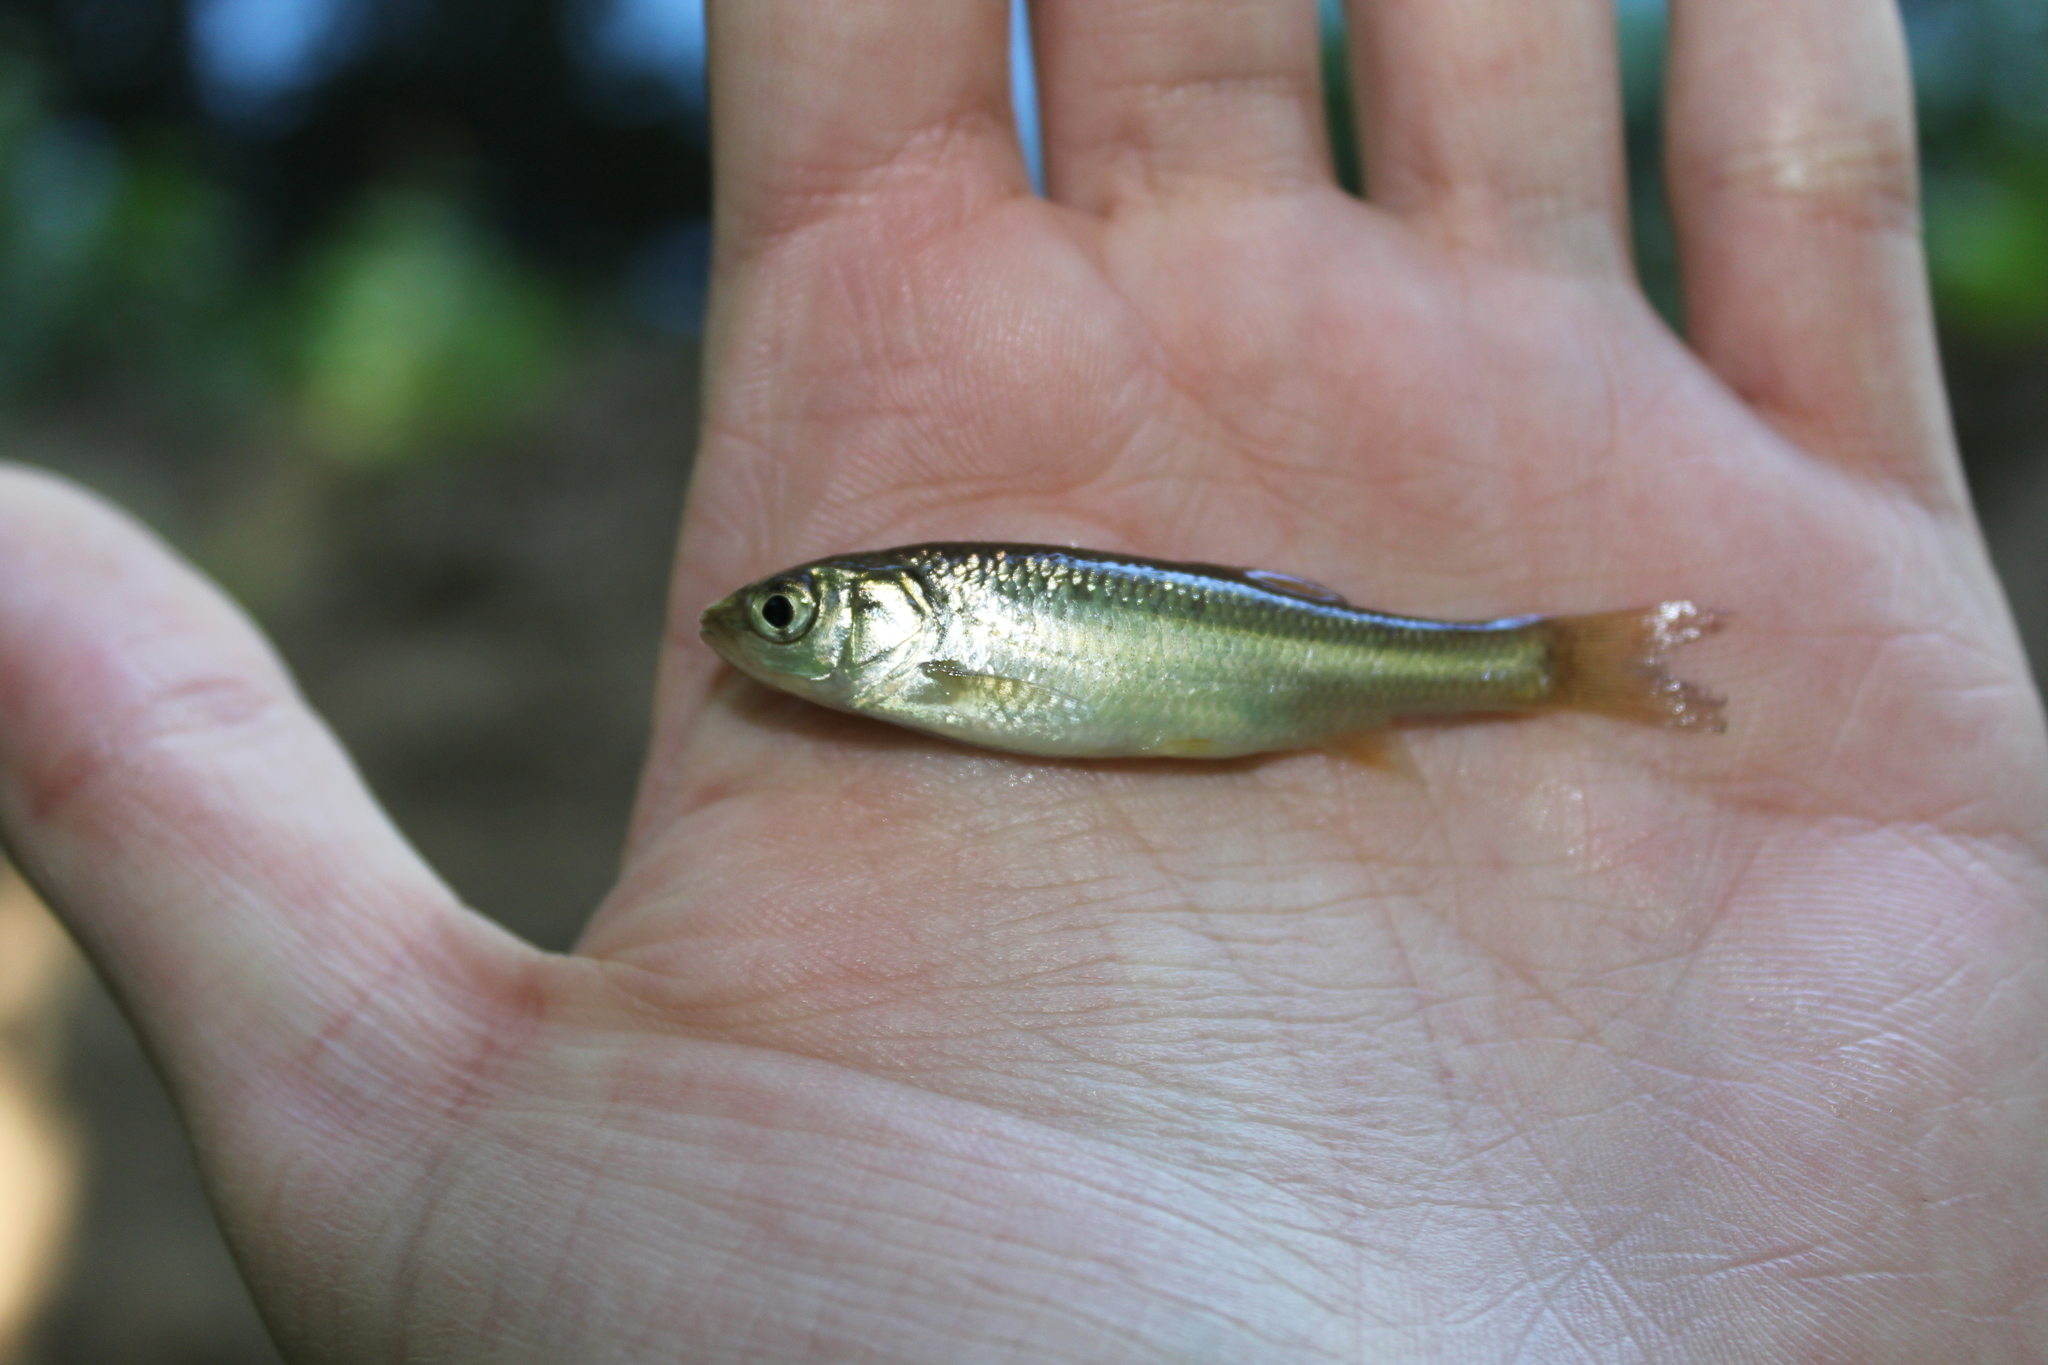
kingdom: Animalia
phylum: Chordata
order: Cypriniformes
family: Cyprinidae
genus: Squalius
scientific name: Squalius cephalus
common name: Chub
